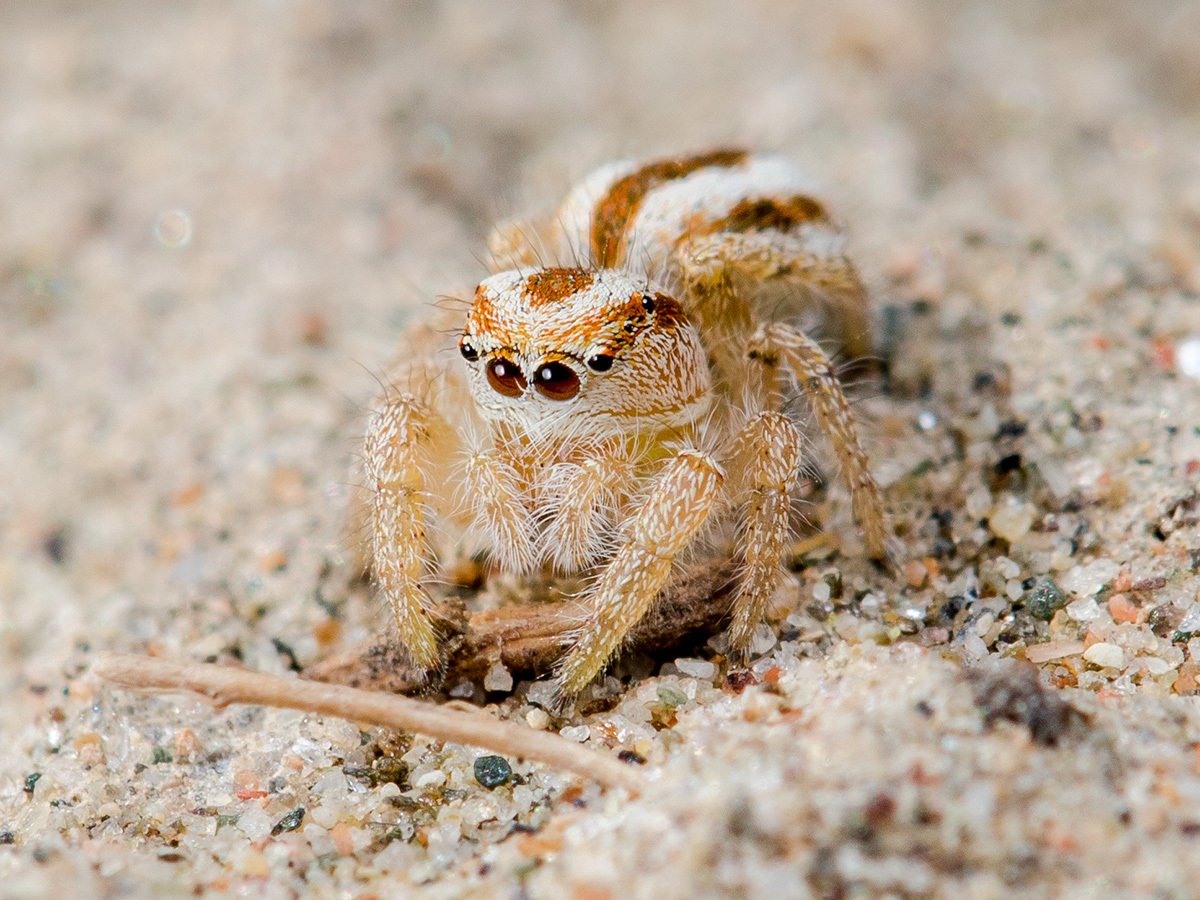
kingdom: Animalia
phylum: Arthropoda
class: Arachnida
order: Araneae
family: Salticidae
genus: Pseudomogrus
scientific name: Pseudomogrus zhilgaensis
